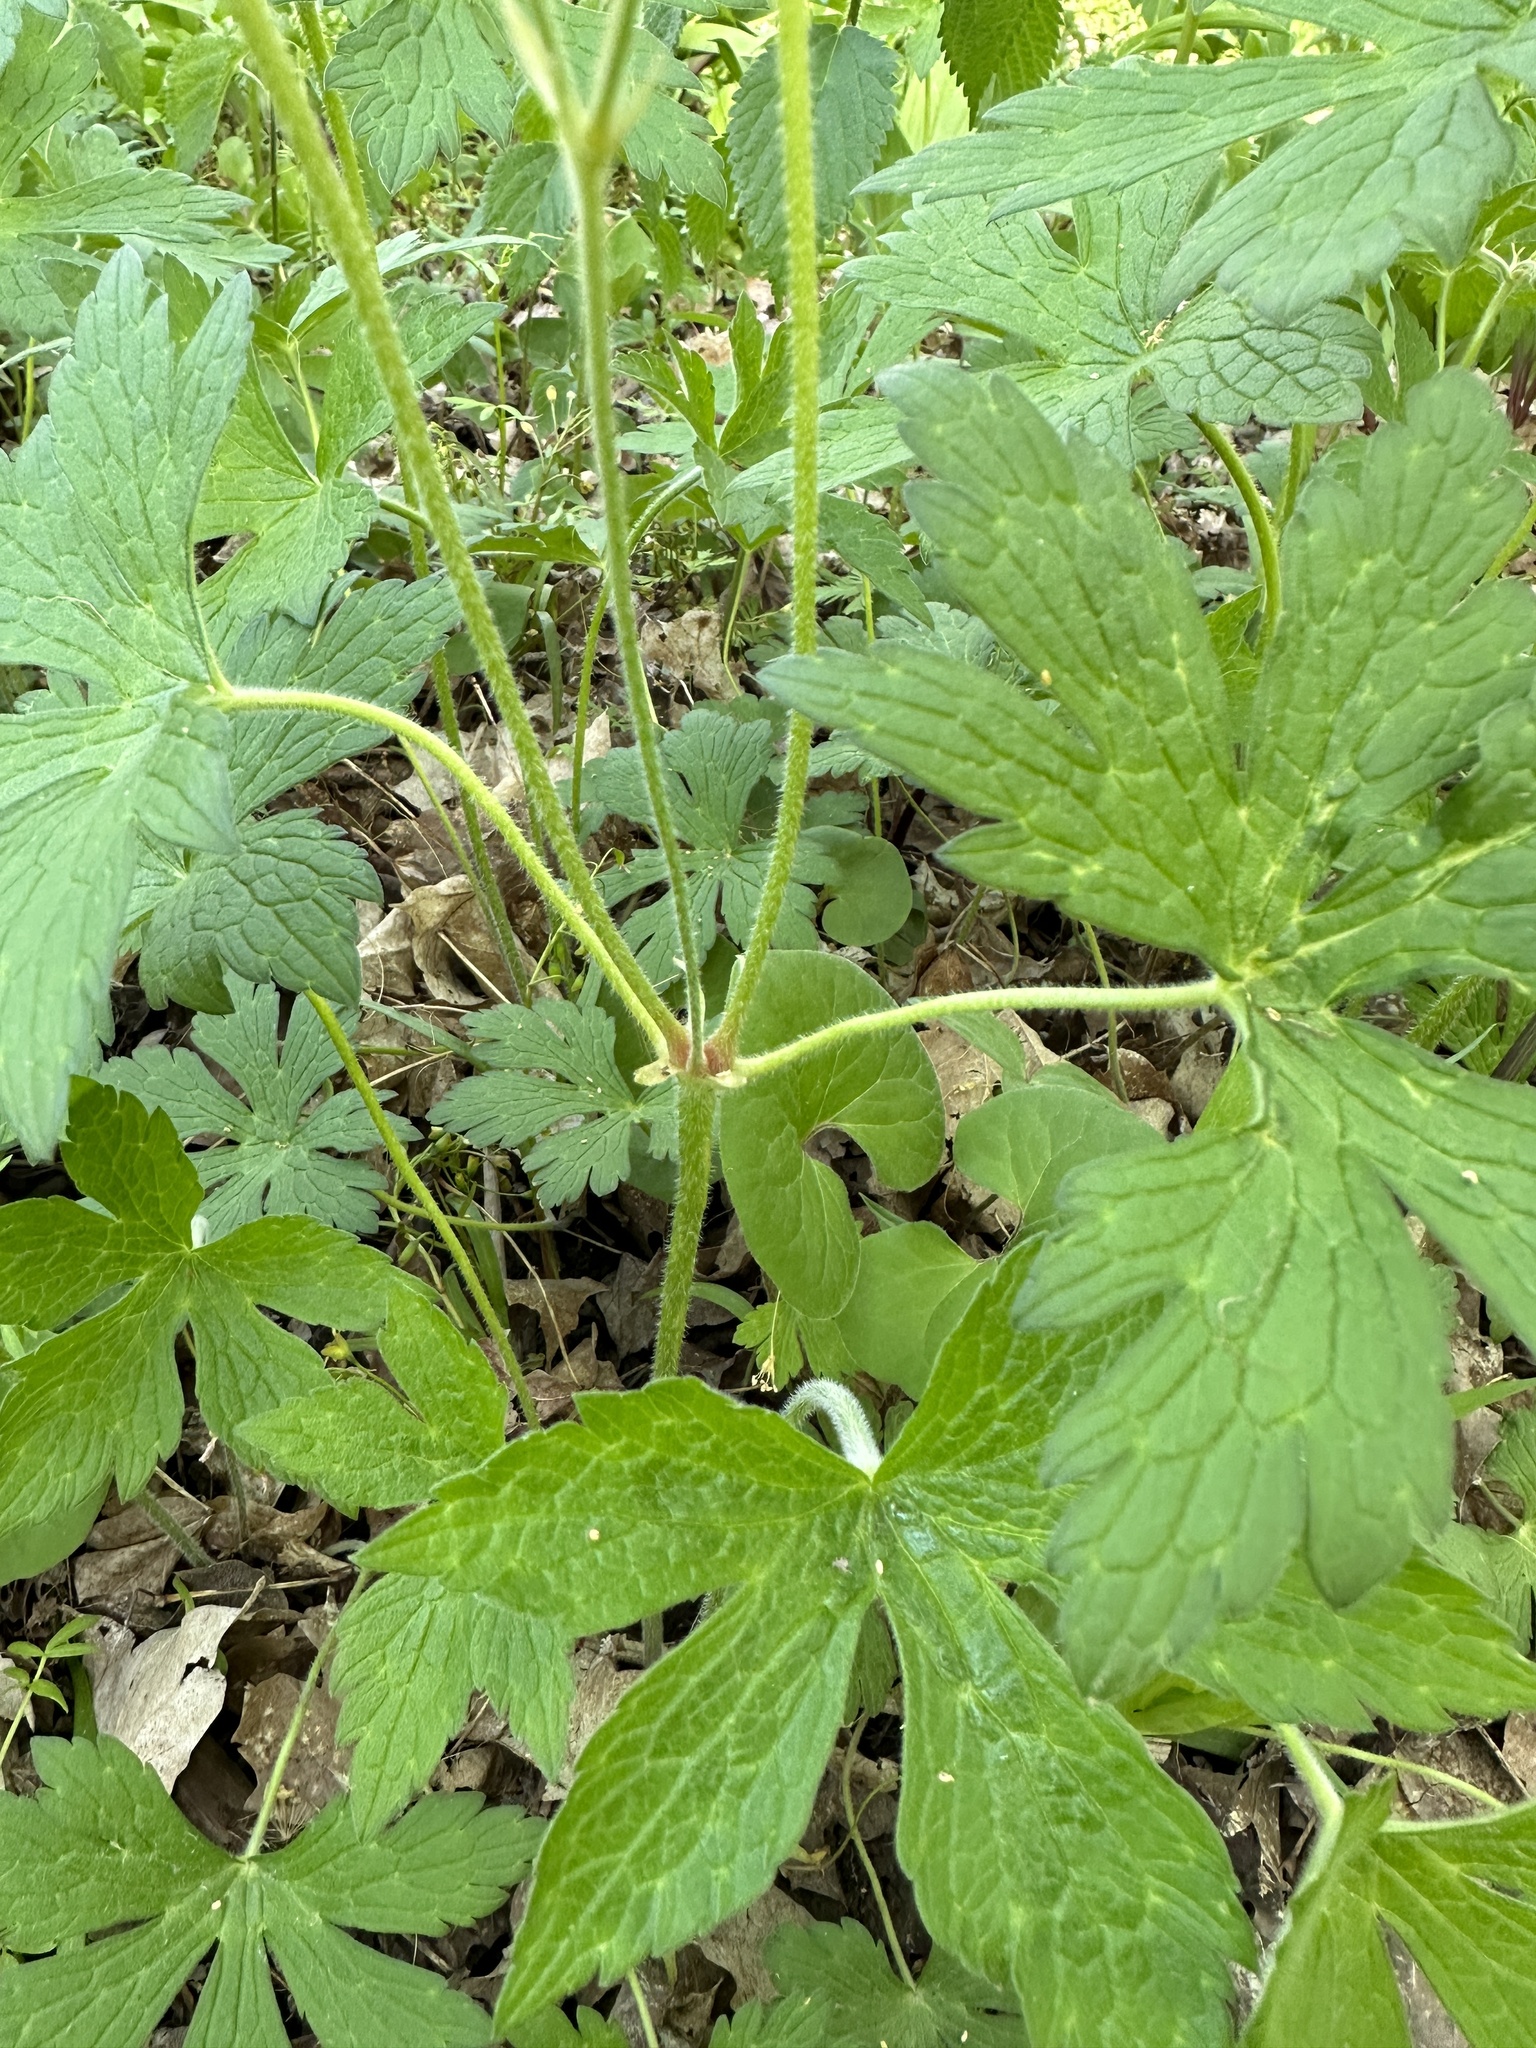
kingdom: Plantae
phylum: Tracheophyta
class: Magnoliopsida
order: Geraniales
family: Geraniaceae
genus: Geranium
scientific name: Geranium maculatum
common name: Spotted geranium
